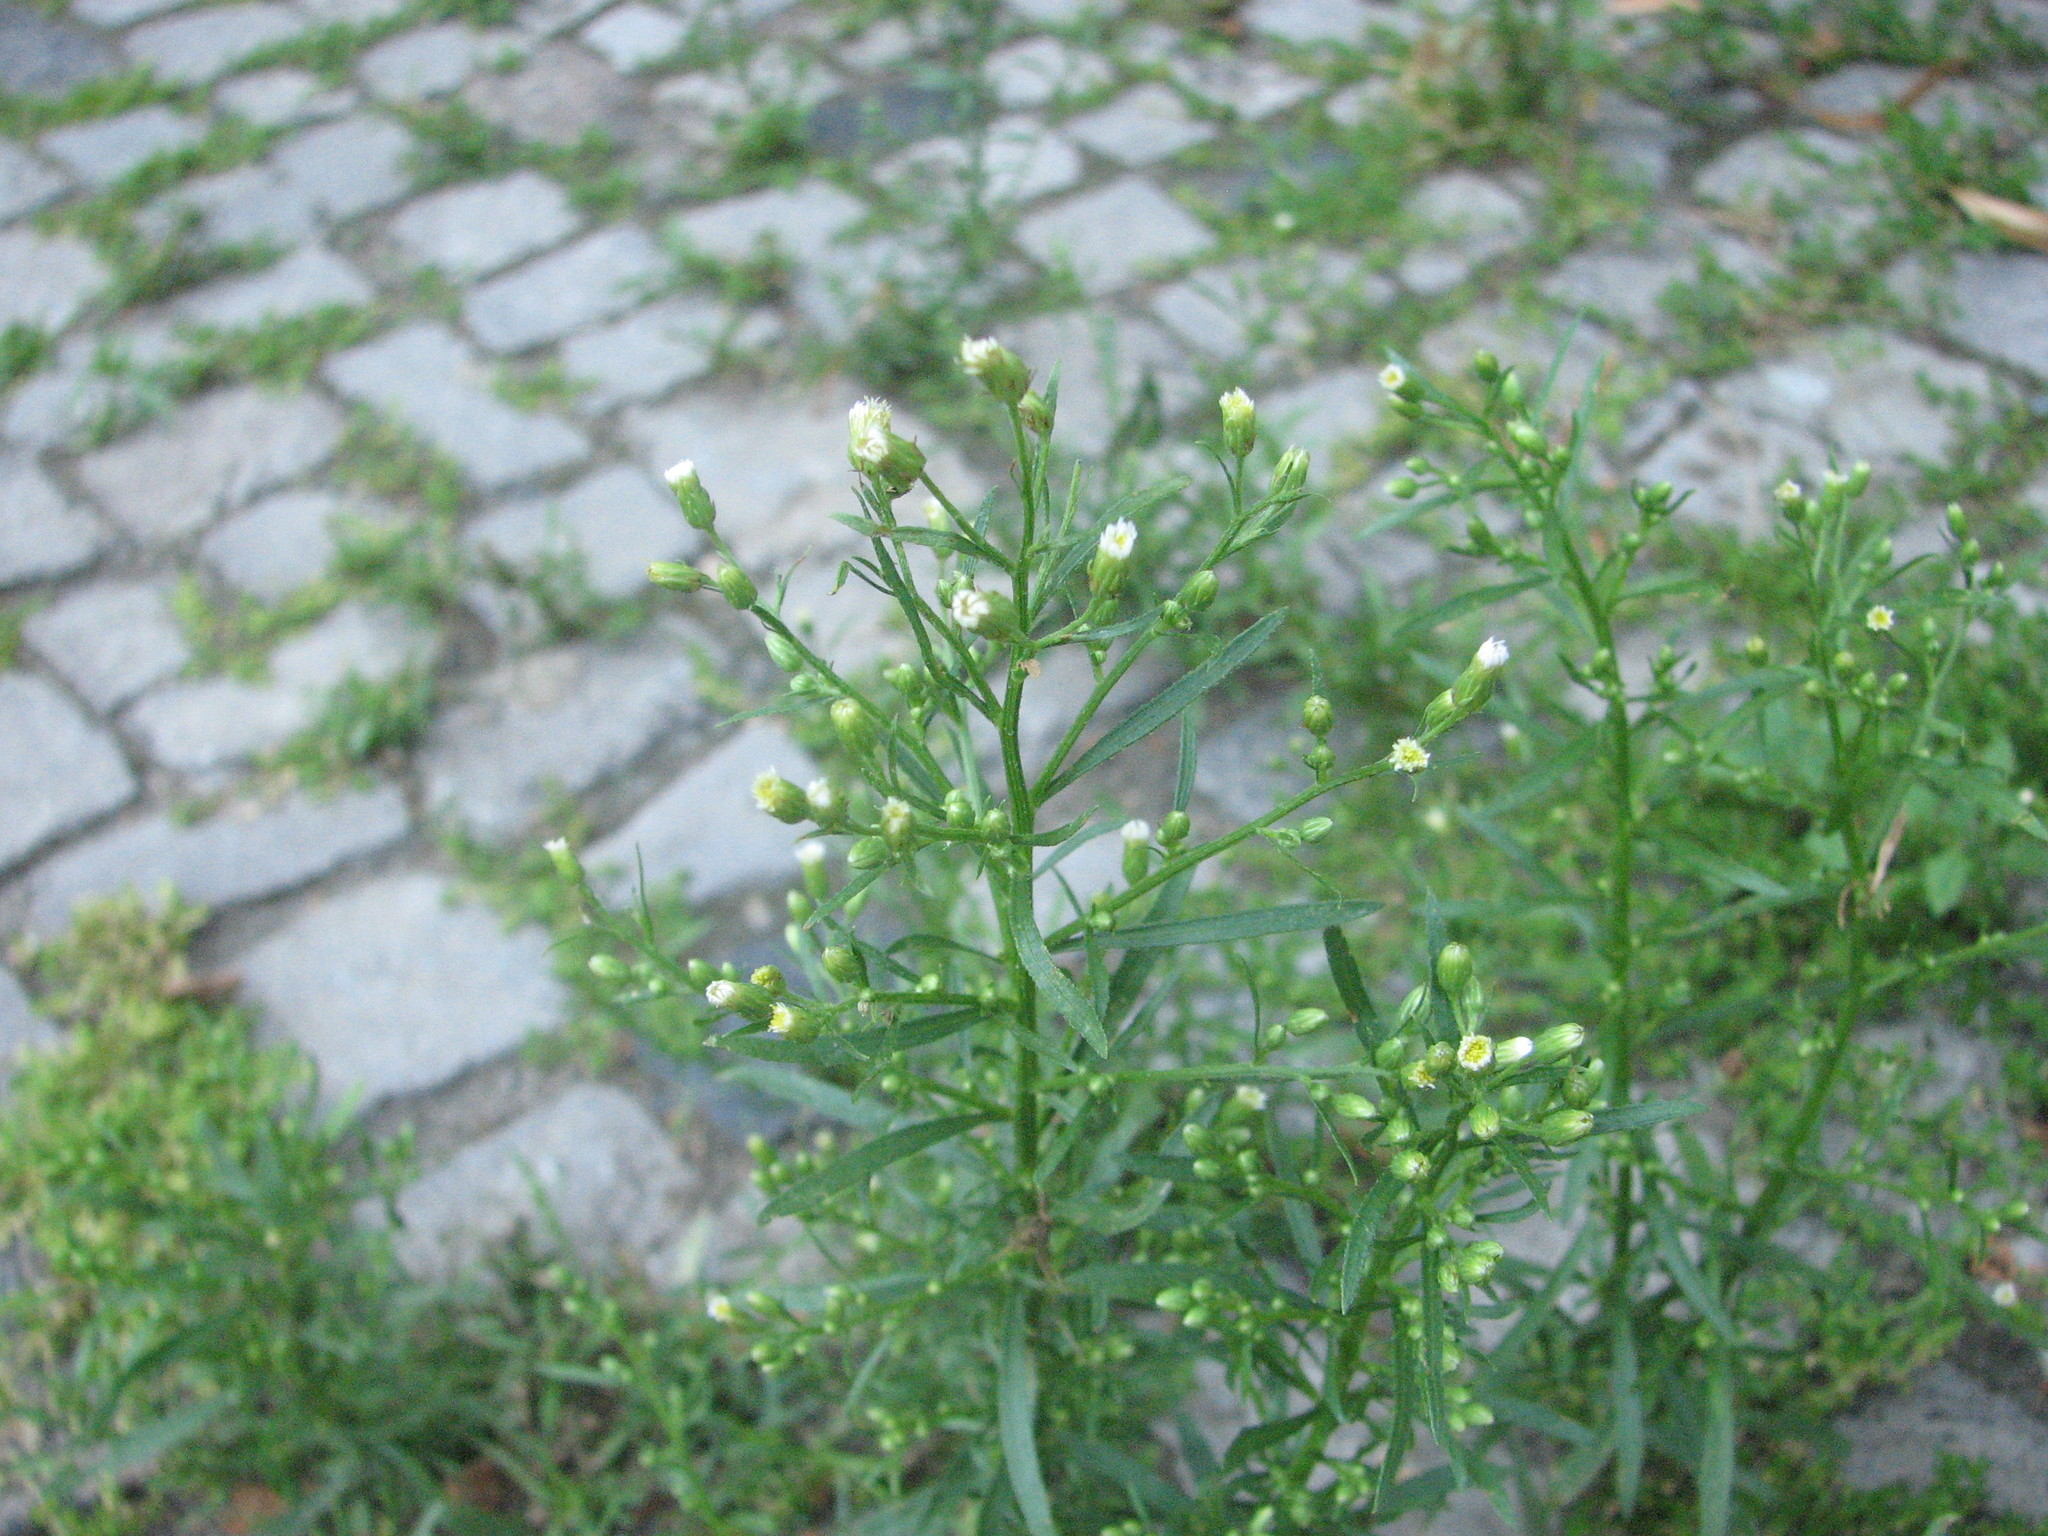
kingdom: Plantae
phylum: Tracheophyta
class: Magnoliopsida
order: Asterales
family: Asteraceae
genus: Erigeron
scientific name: Erigeron canadensis
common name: Canadian fleabane
